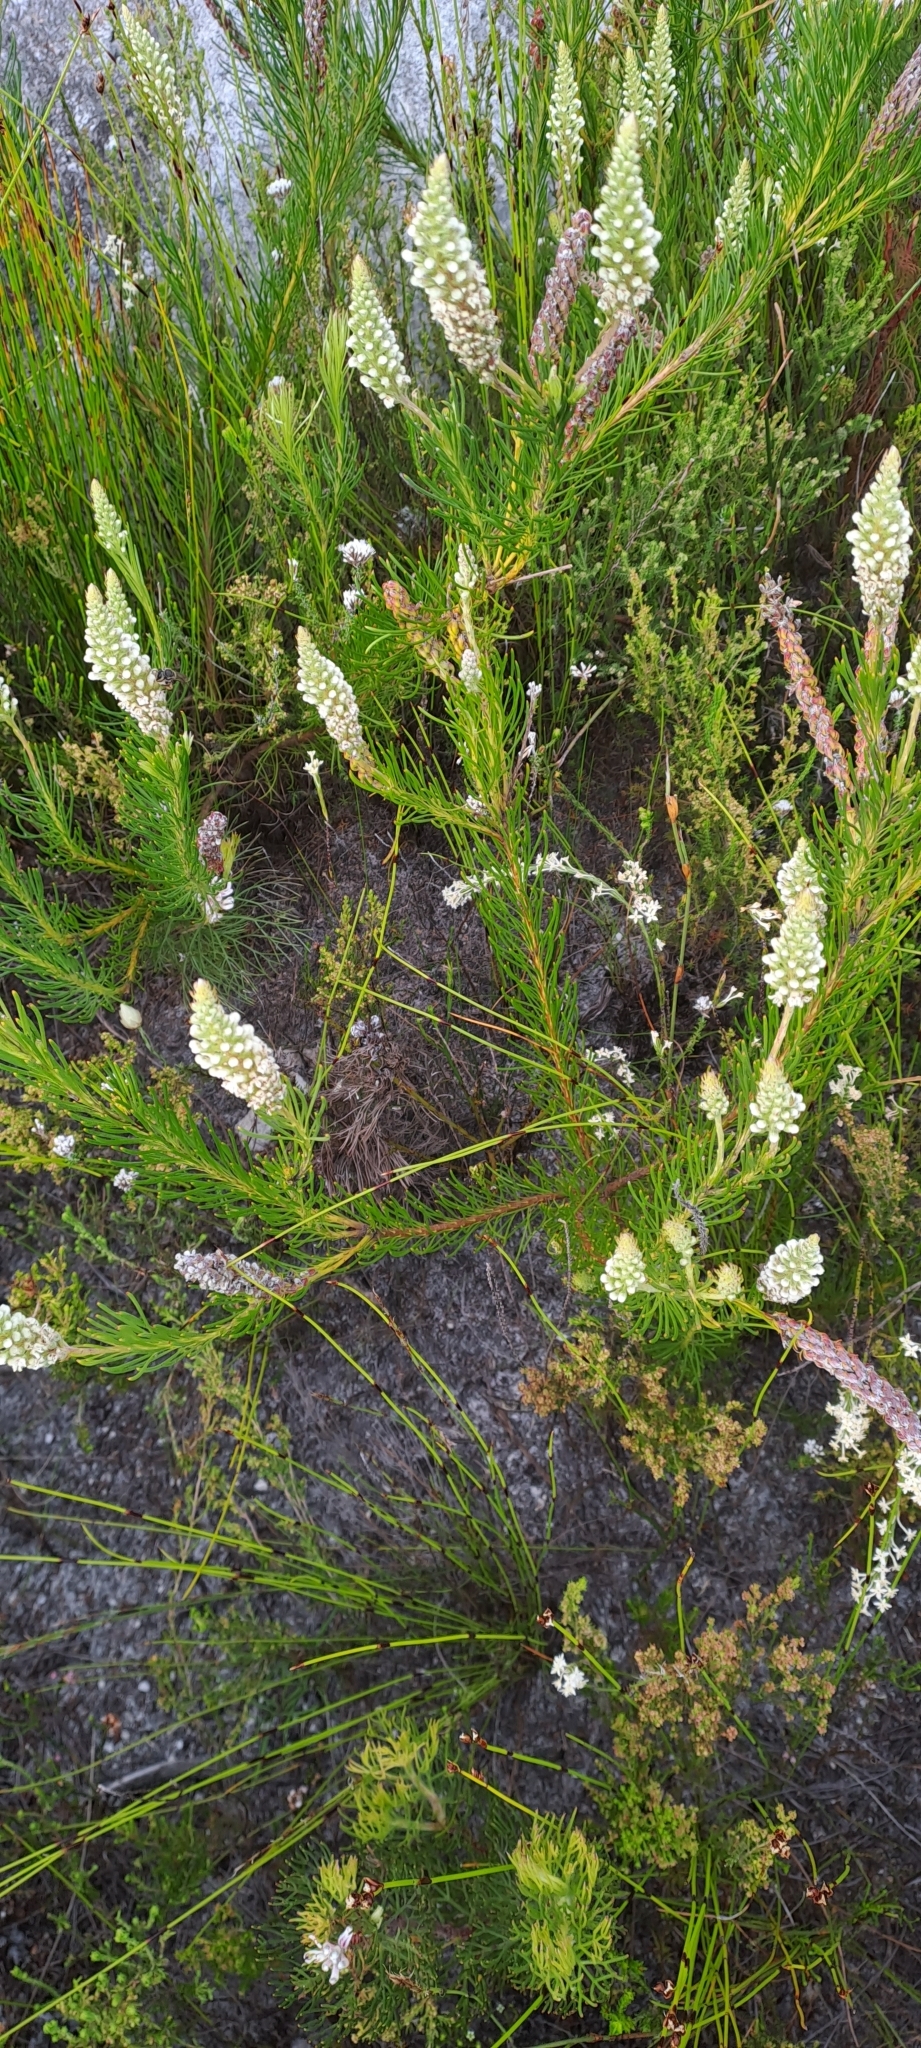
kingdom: Plantae
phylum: Tracheophyta
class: Magnoliopsida
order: Proteales
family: Proteaceae
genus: Spatalla
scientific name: Spatalla curvifolia
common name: White-stalked spoon
